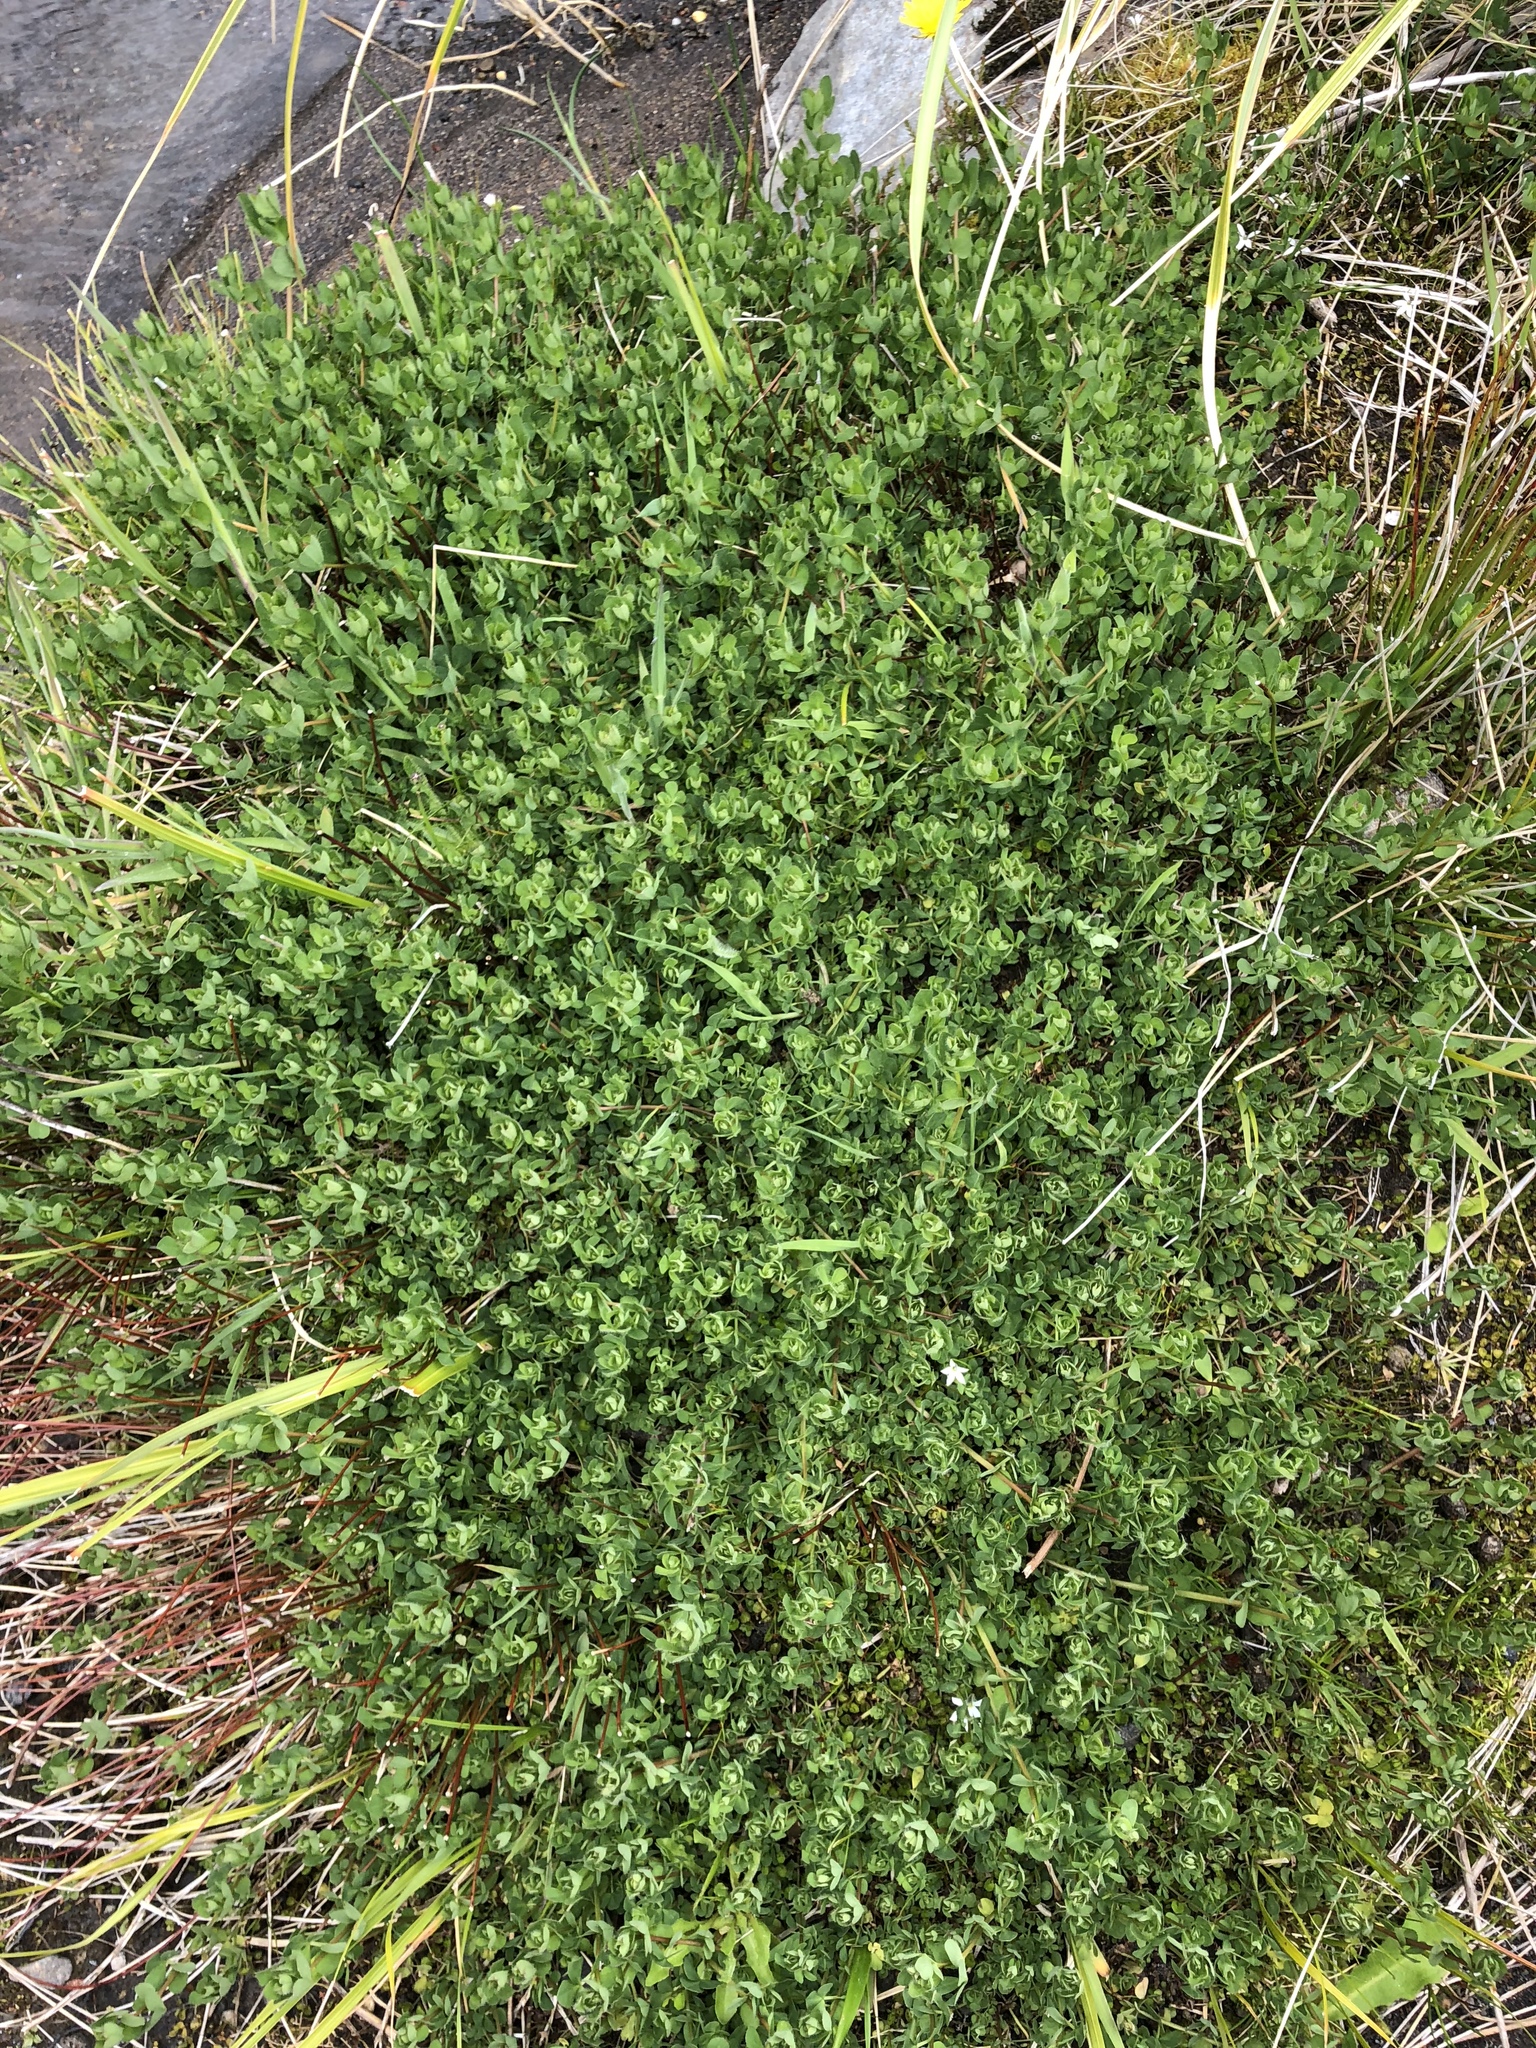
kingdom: Plantae
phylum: Tracheophyta
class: Magnoliopsida
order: Fabales
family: Fabaceae
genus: Lotus
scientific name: Lotus pedunculatus
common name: Greater birdsfoot-trefoil
